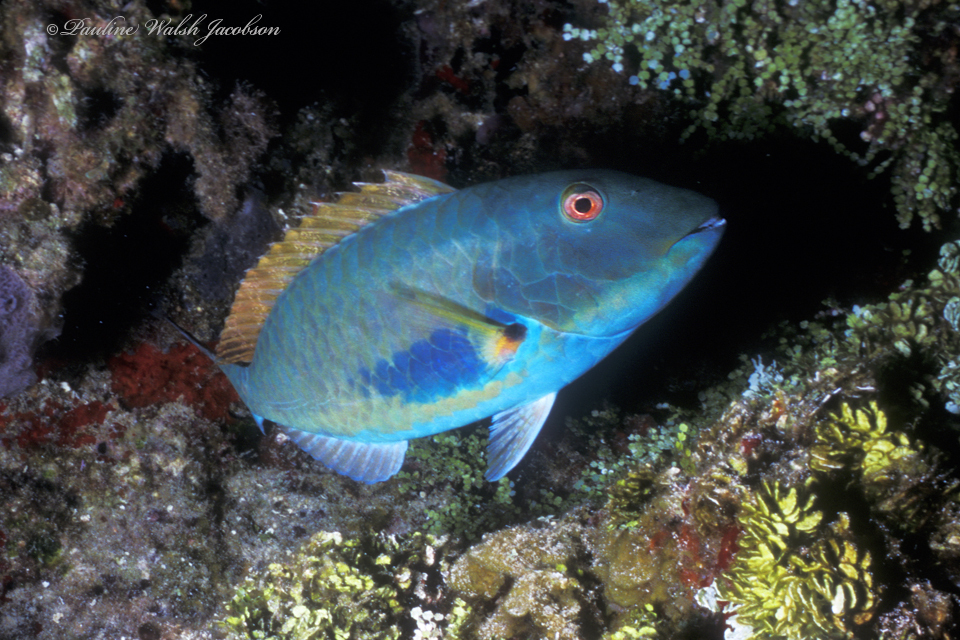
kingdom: Animalia
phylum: Chordata
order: Perciformes
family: Scaridae
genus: Sparisoma
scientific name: Sparisoma chrysopterum
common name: Redtail parrotfish
